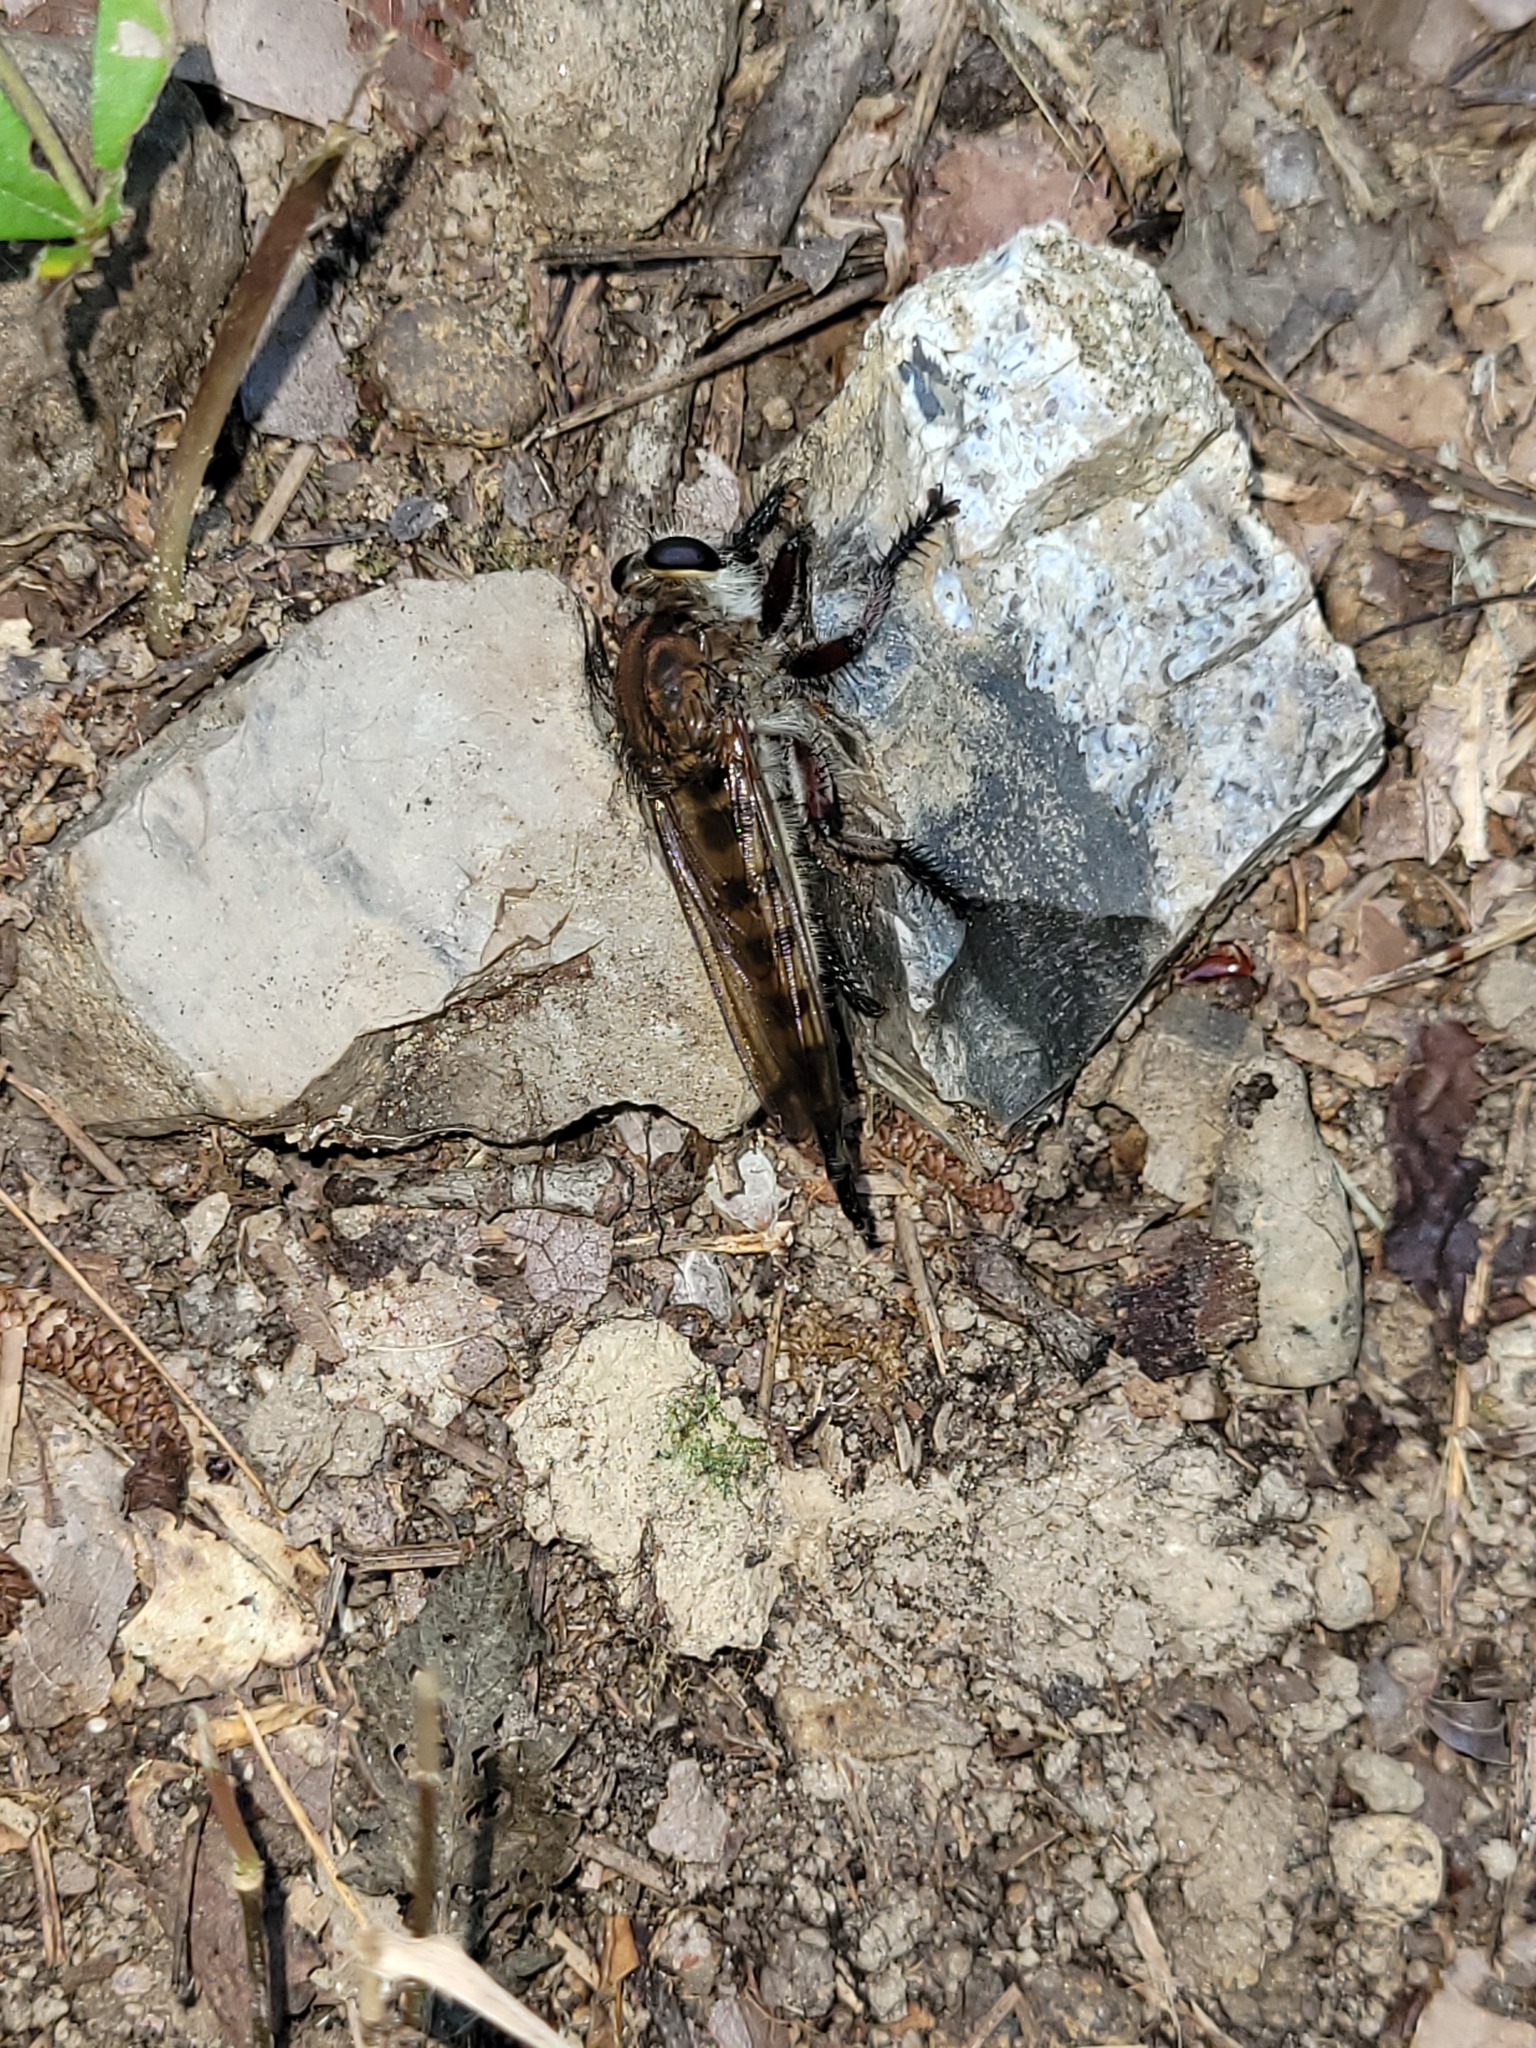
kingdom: Animalia
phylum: Arthropoda
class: Insecta
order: Diptera
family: Asilidae
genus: Promachus
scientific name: Promachus hinei
